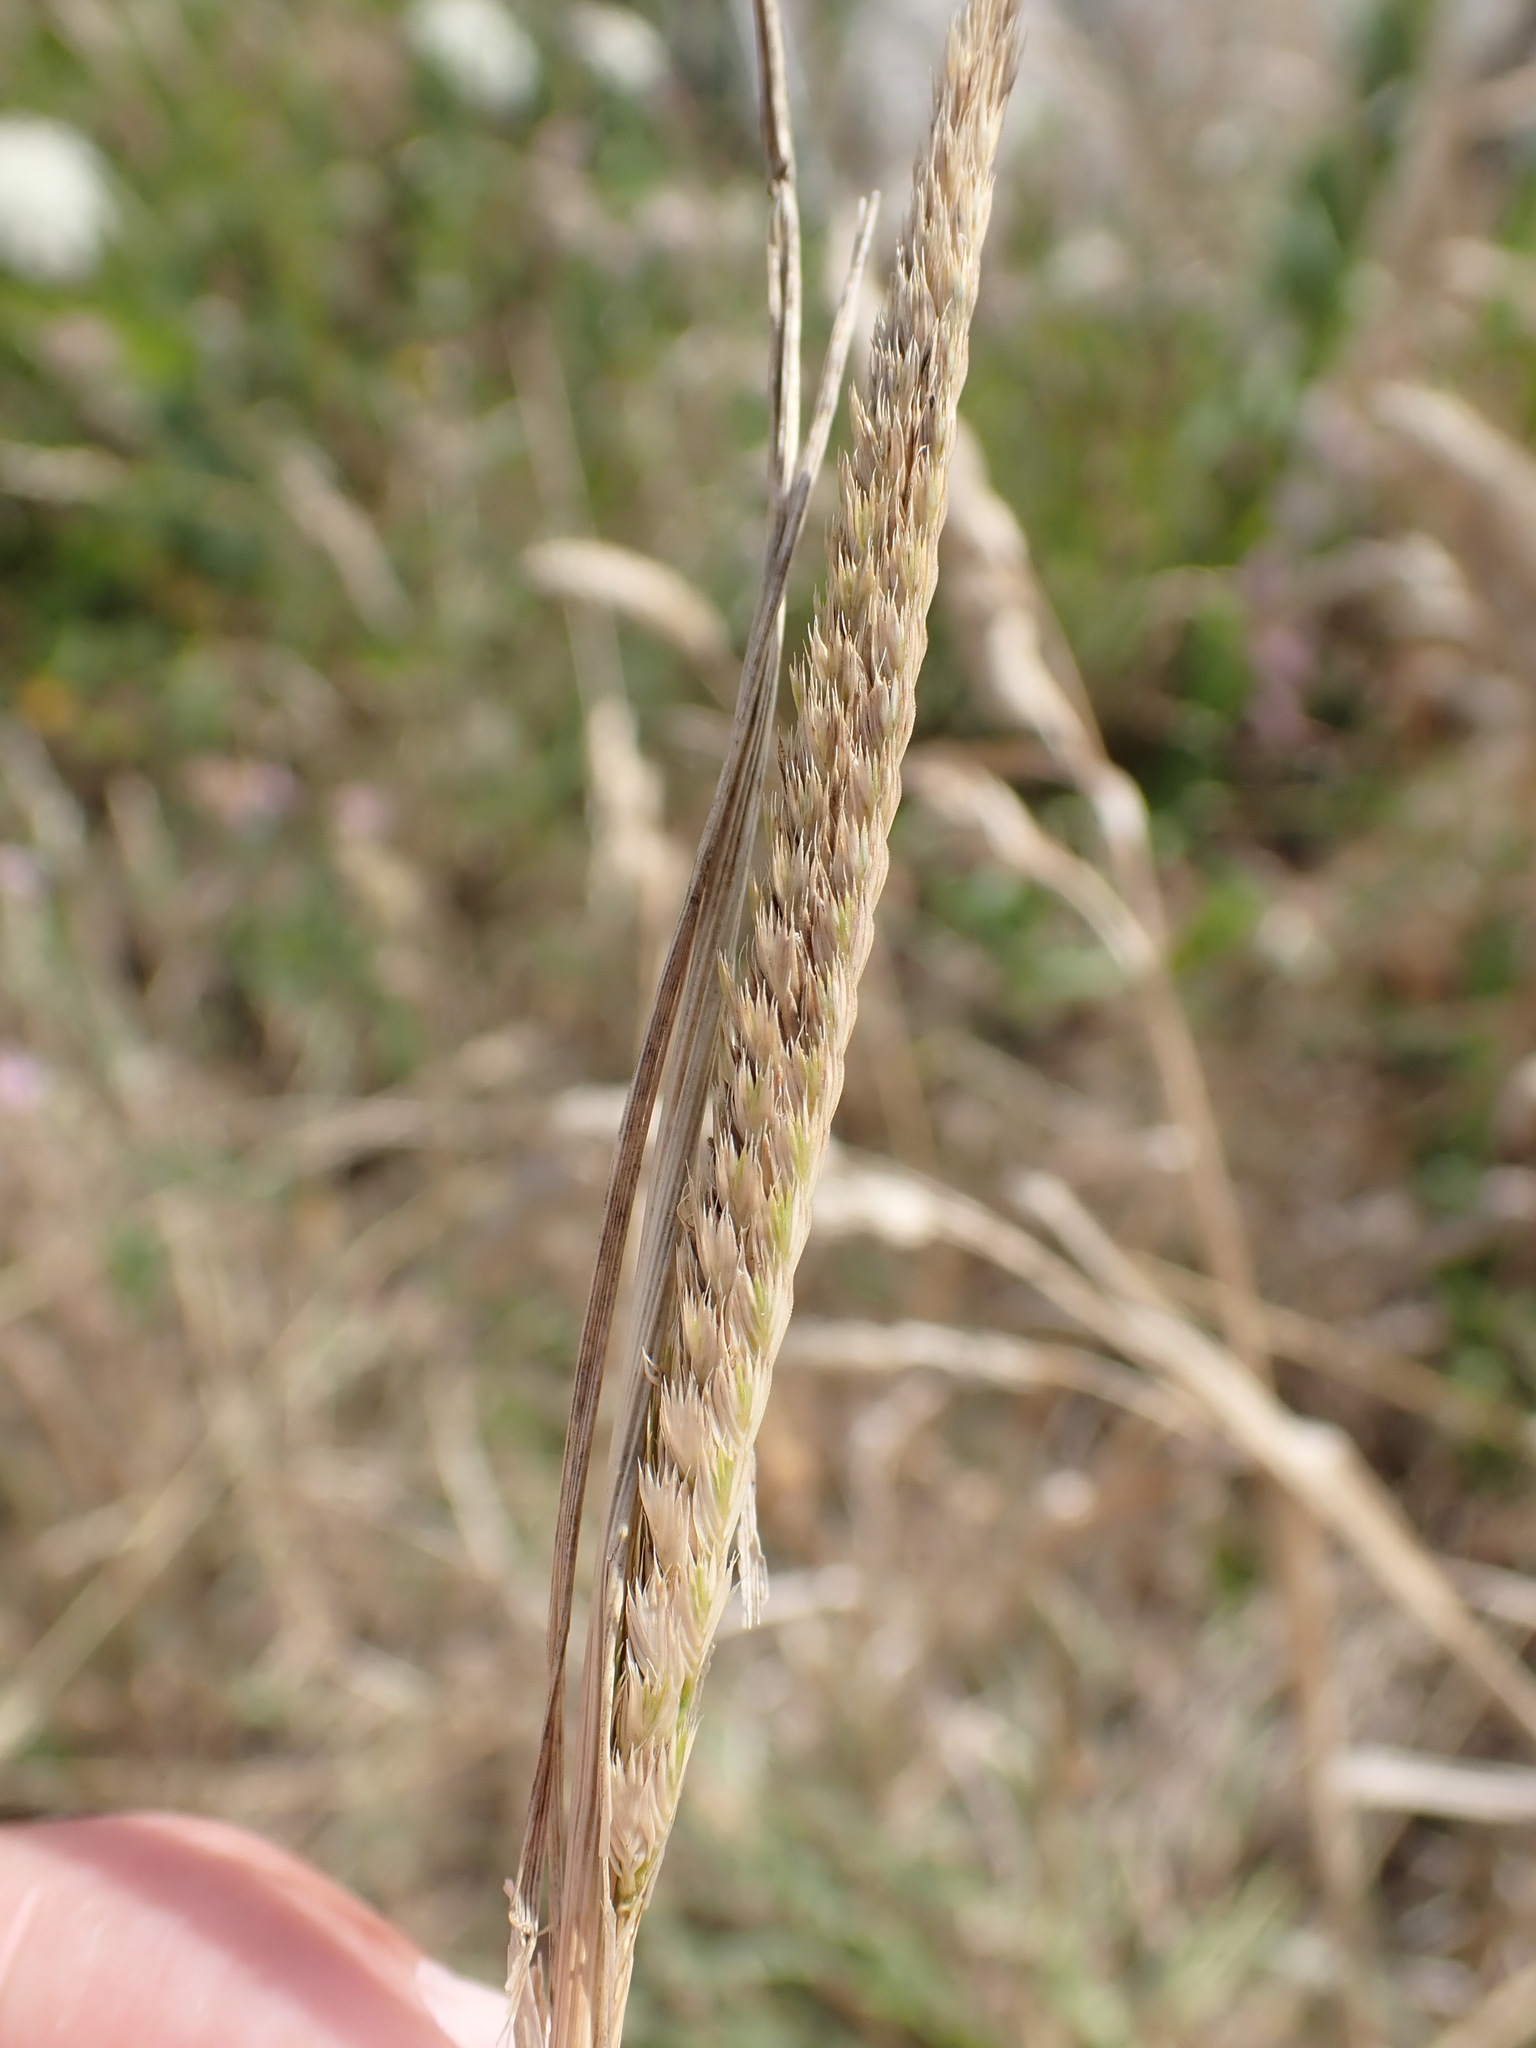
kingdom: Plantae
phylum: Tracheophyta
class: Liliopsida
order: Poales
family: Poaceae
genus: Cynosurus
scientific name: Cynosurus cristatus
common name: Crested dog's-tail
